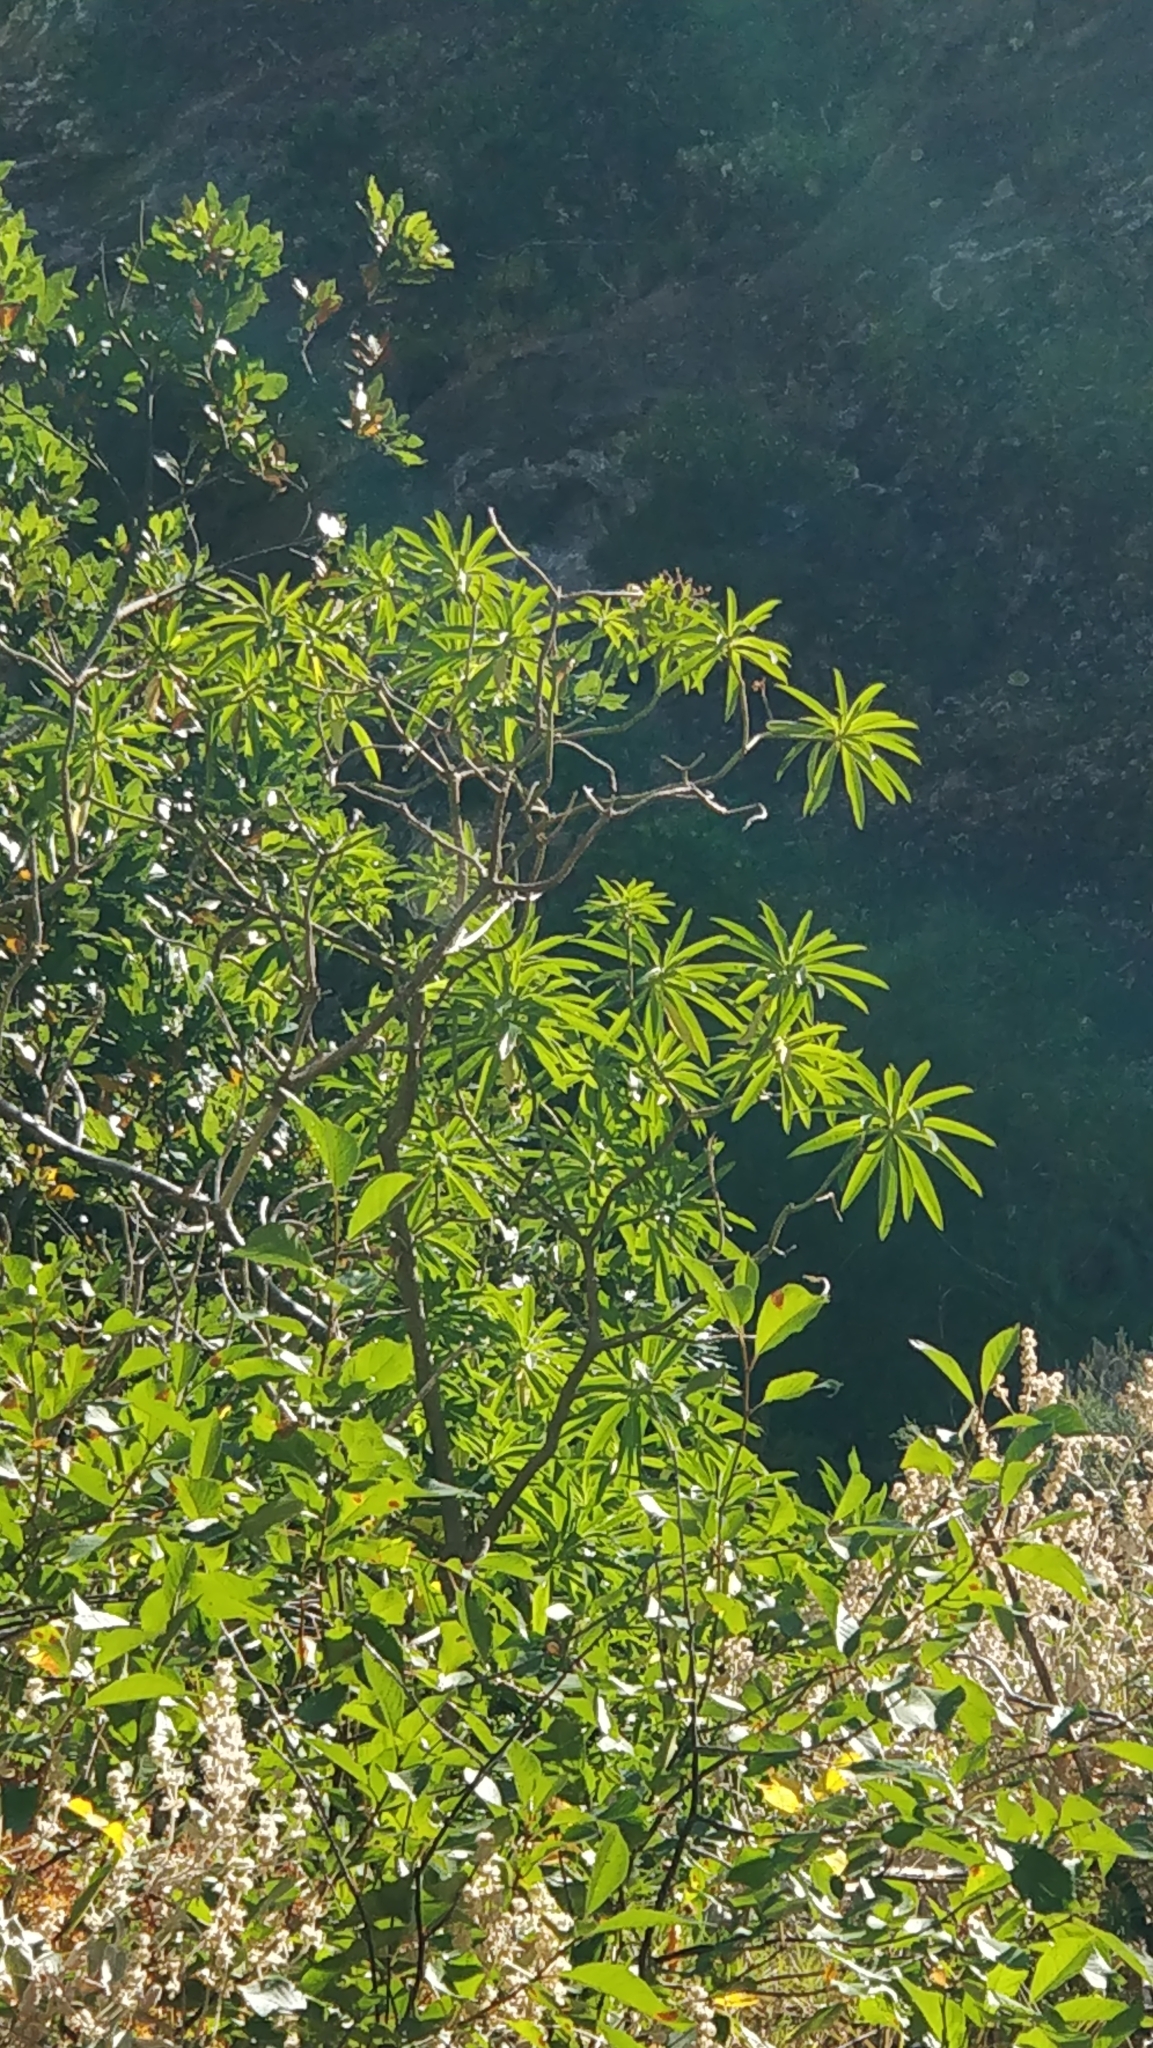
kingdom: Plantae
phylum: Tracheophyta
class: Magnoliopsida
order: Malpighiales
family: Euphorbiaceae
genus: Euphorbia
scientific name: Euphorbia mellifera
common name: Canary spurge
